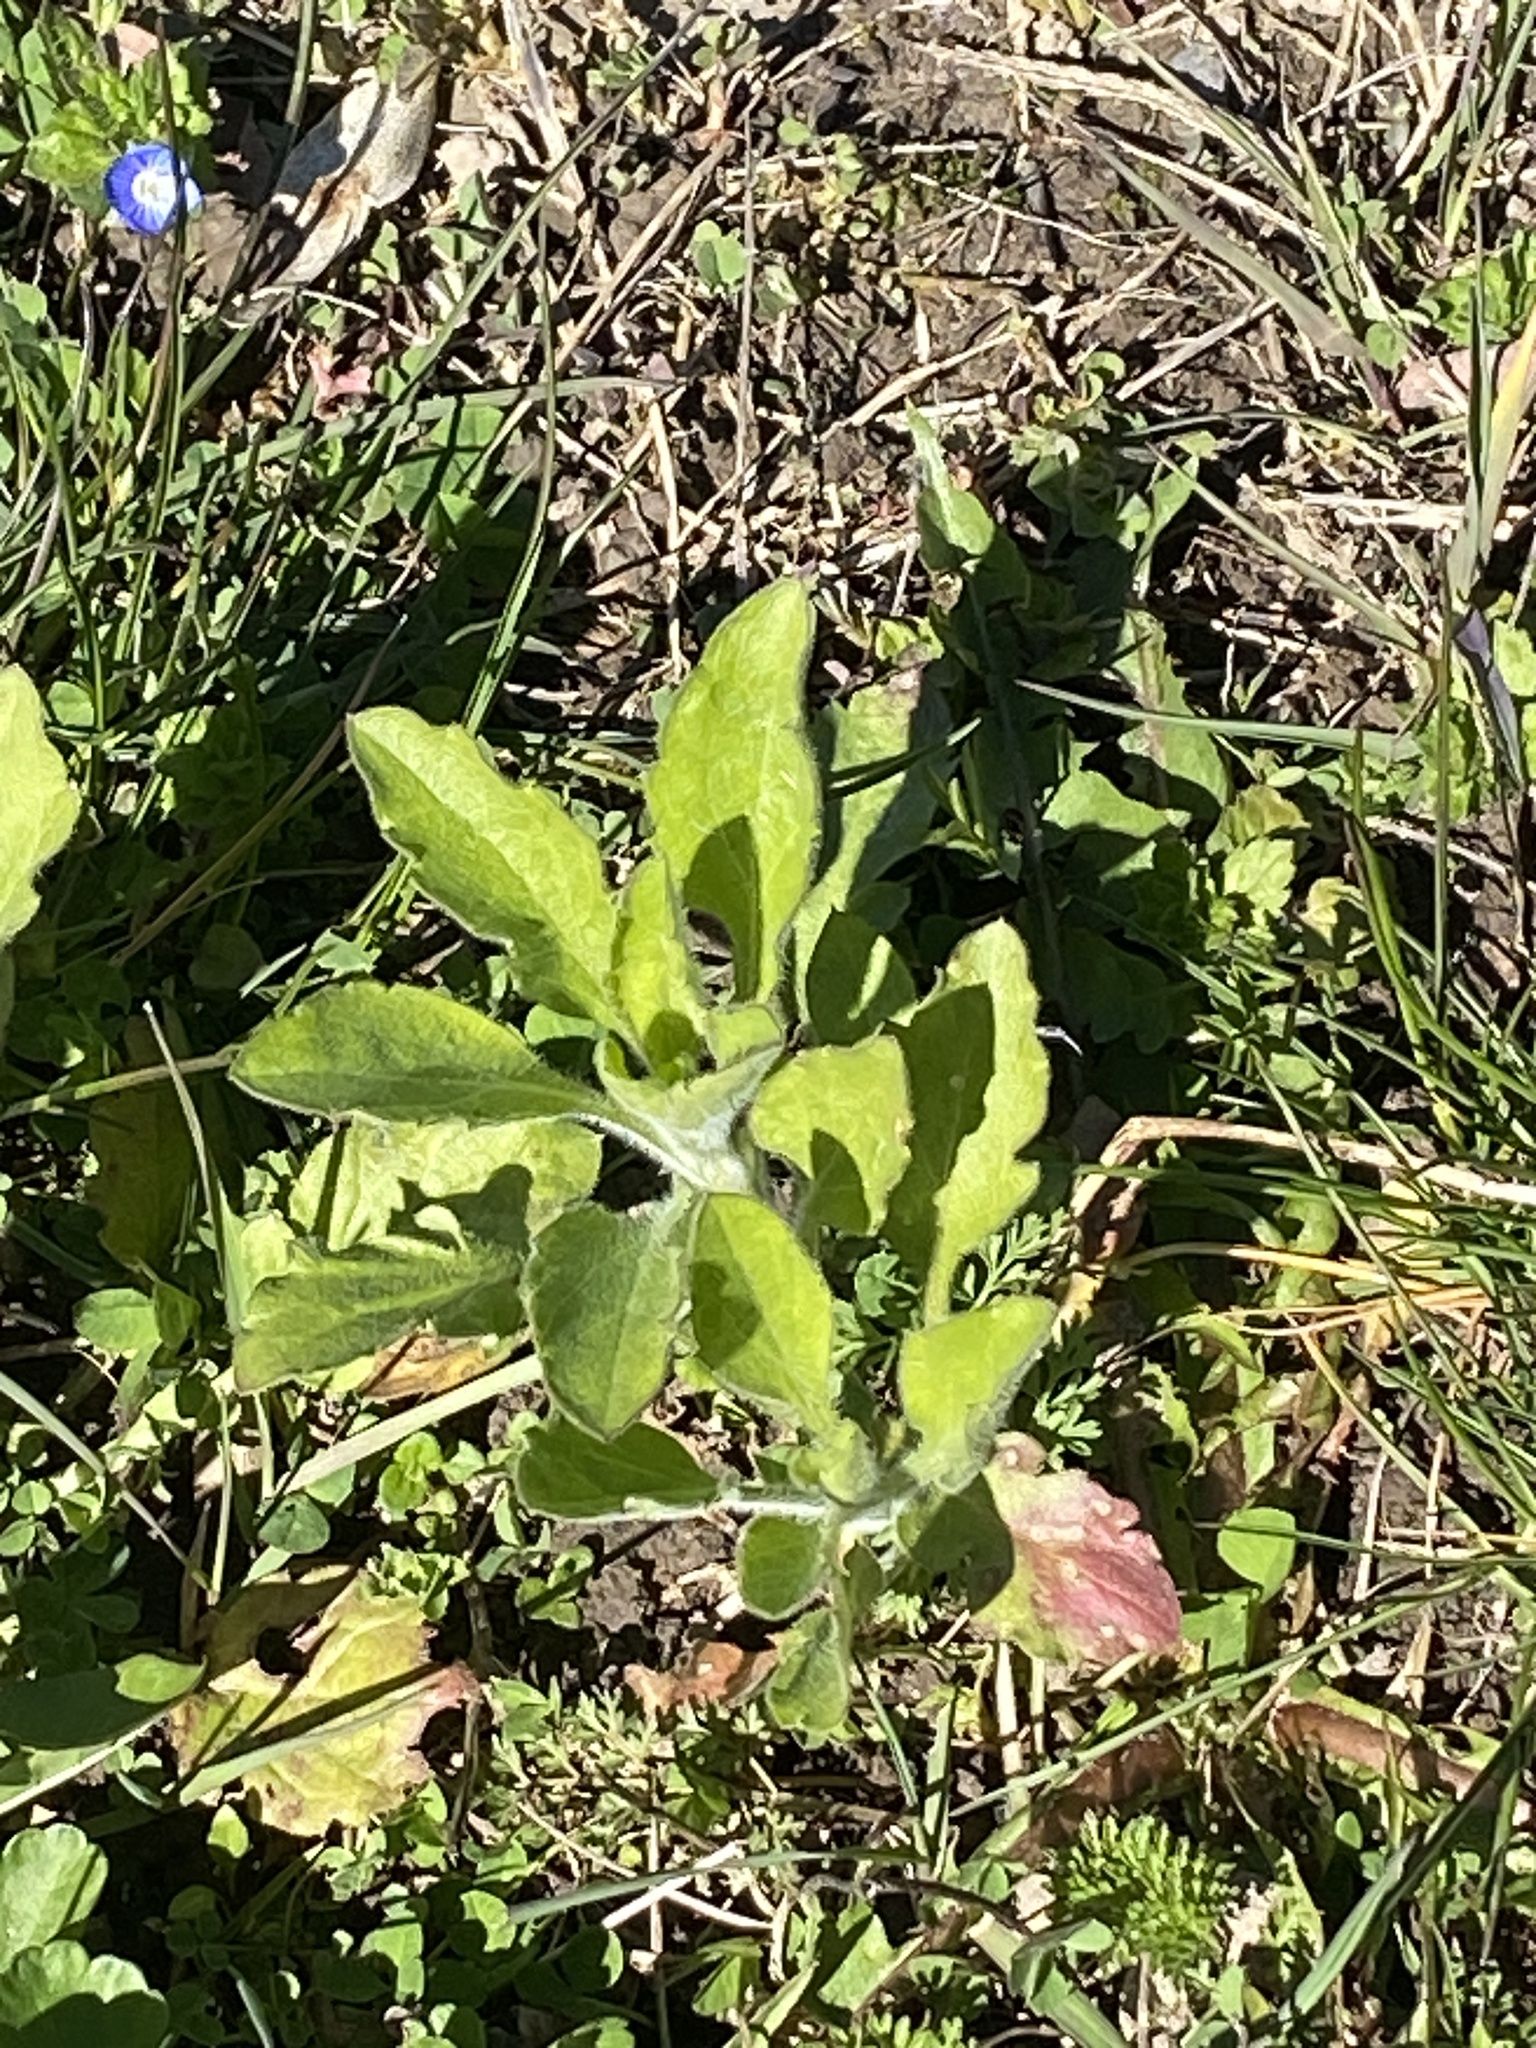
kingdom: Plantae
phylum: Tracheophyta
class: Magnoliopsida
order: Asterales
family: Asteraceae
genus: Erigeron
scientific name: Erigeron annuus
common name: Tall fleabane
